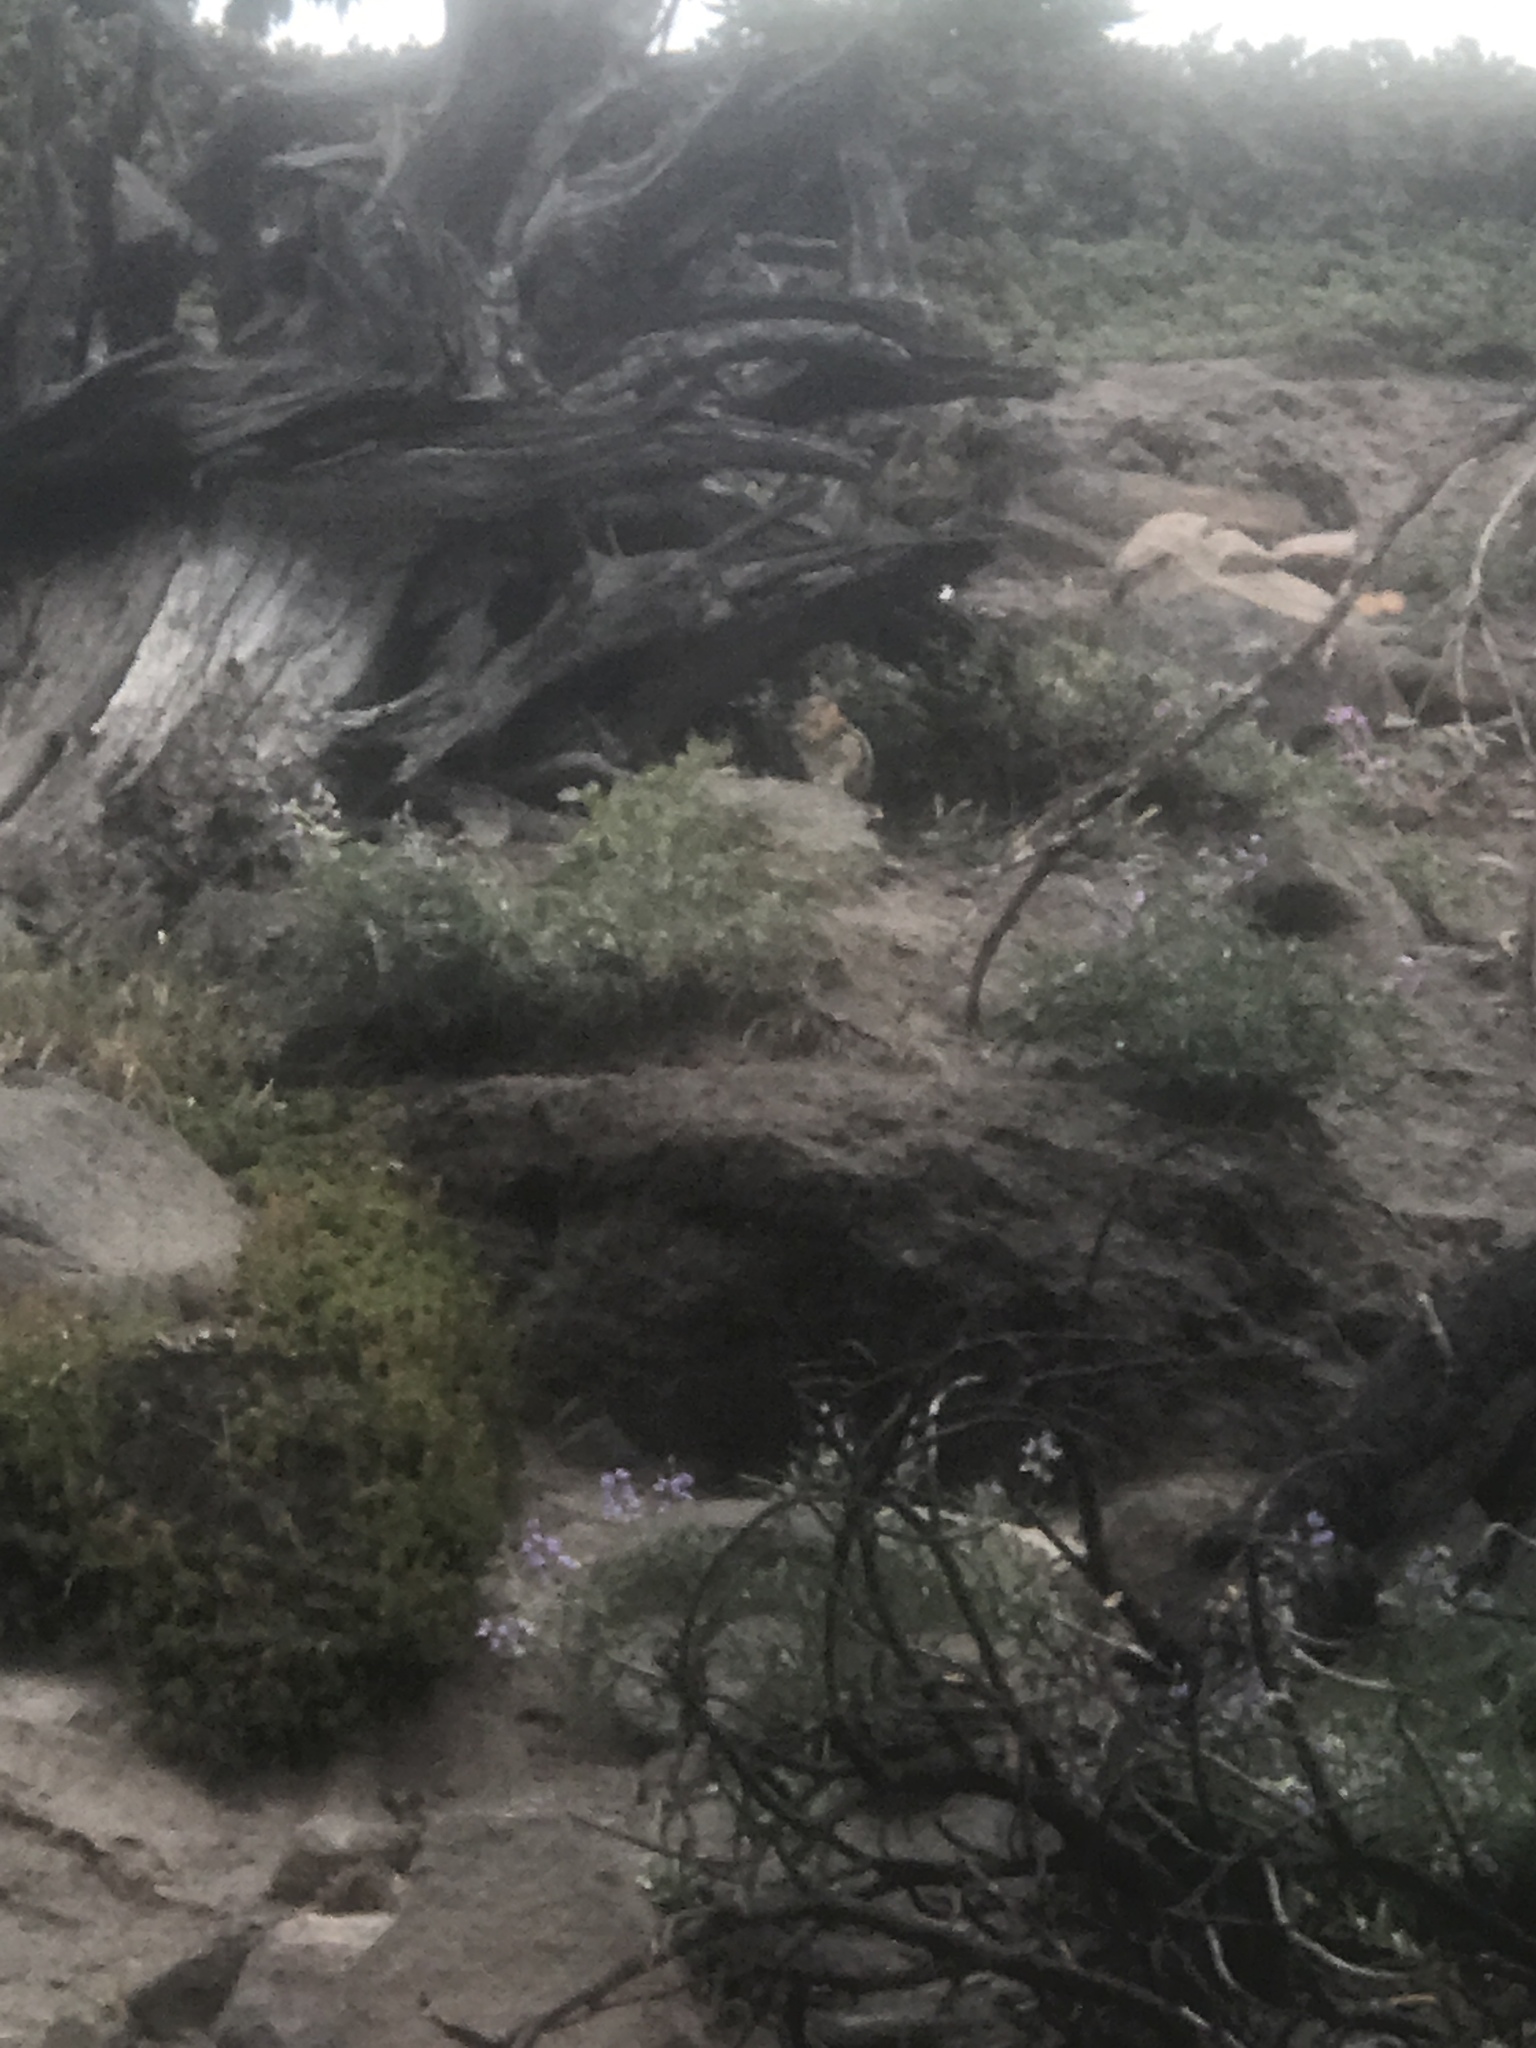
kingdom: Animalia
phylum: Chordata
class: Mammalia
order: Rodentia
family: Sciuridae
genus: Callospermophilus
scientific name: Callospermophilus lateralis
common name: Golden-mantled ground squirrel
